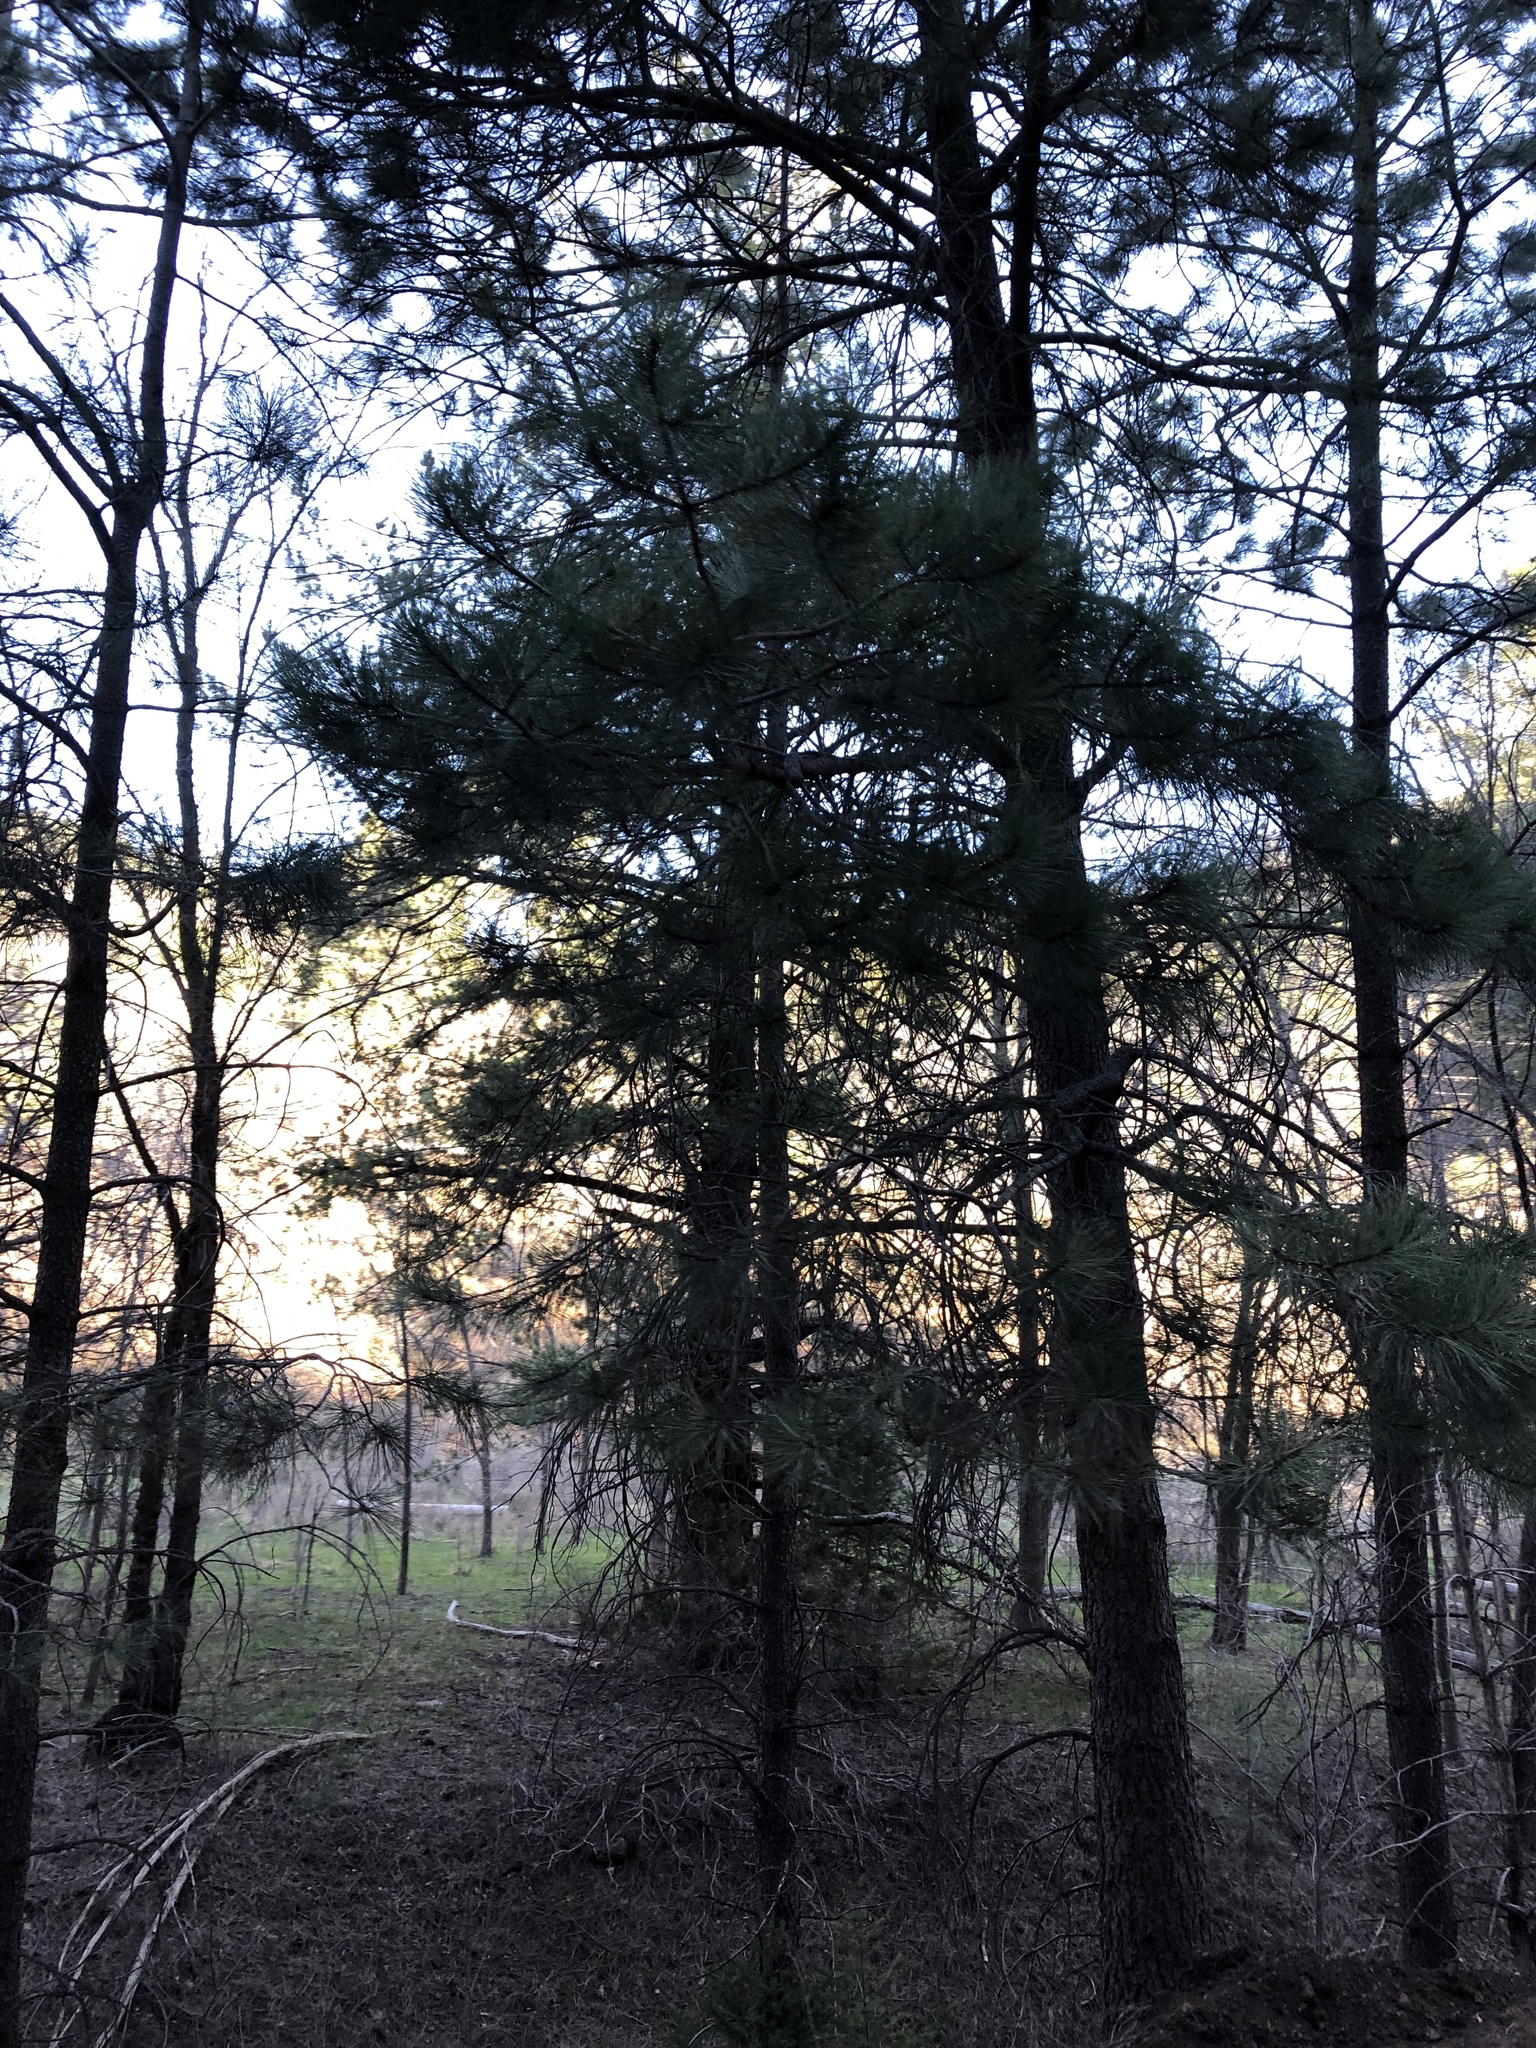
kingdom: Plantae
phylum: Tracheophyta
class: Pinopsida
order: Pinales
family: Pinaceae
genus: Pinus
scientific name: Pinus ponderosa
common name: Western yellow-pine
